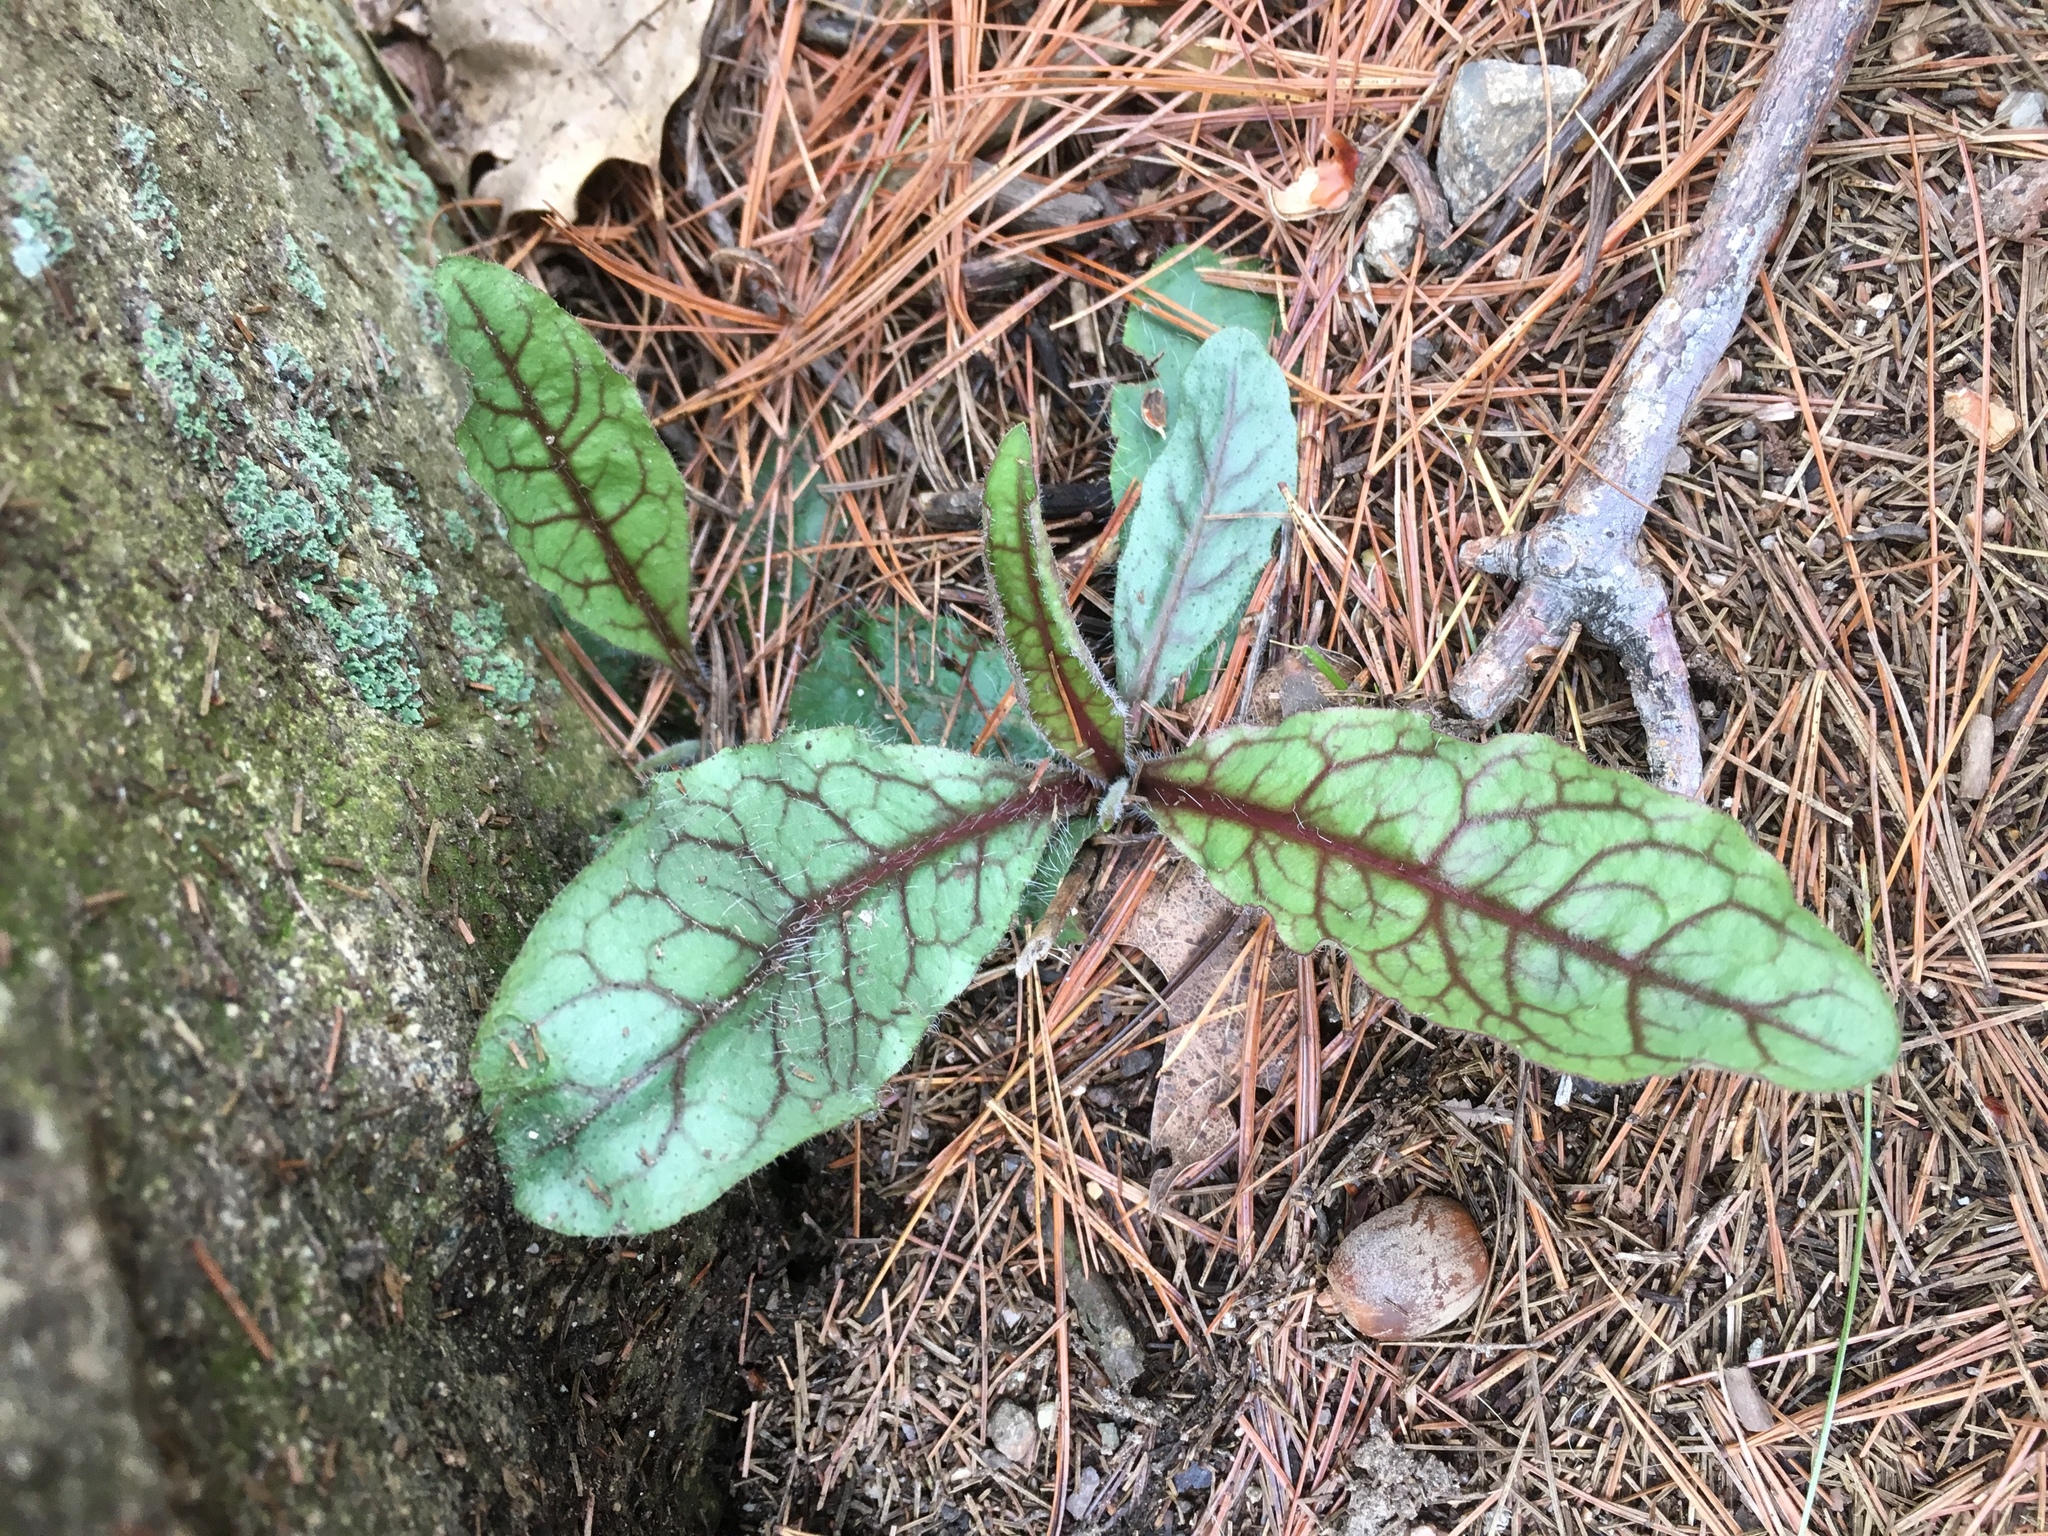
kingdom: Plantae
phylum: Tracheophyta
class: Magnoliopsida
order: Asterales
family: Asteraceae
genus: Hieracium
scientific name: Hieracium venosum
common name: Rattlesnake hawkweed
